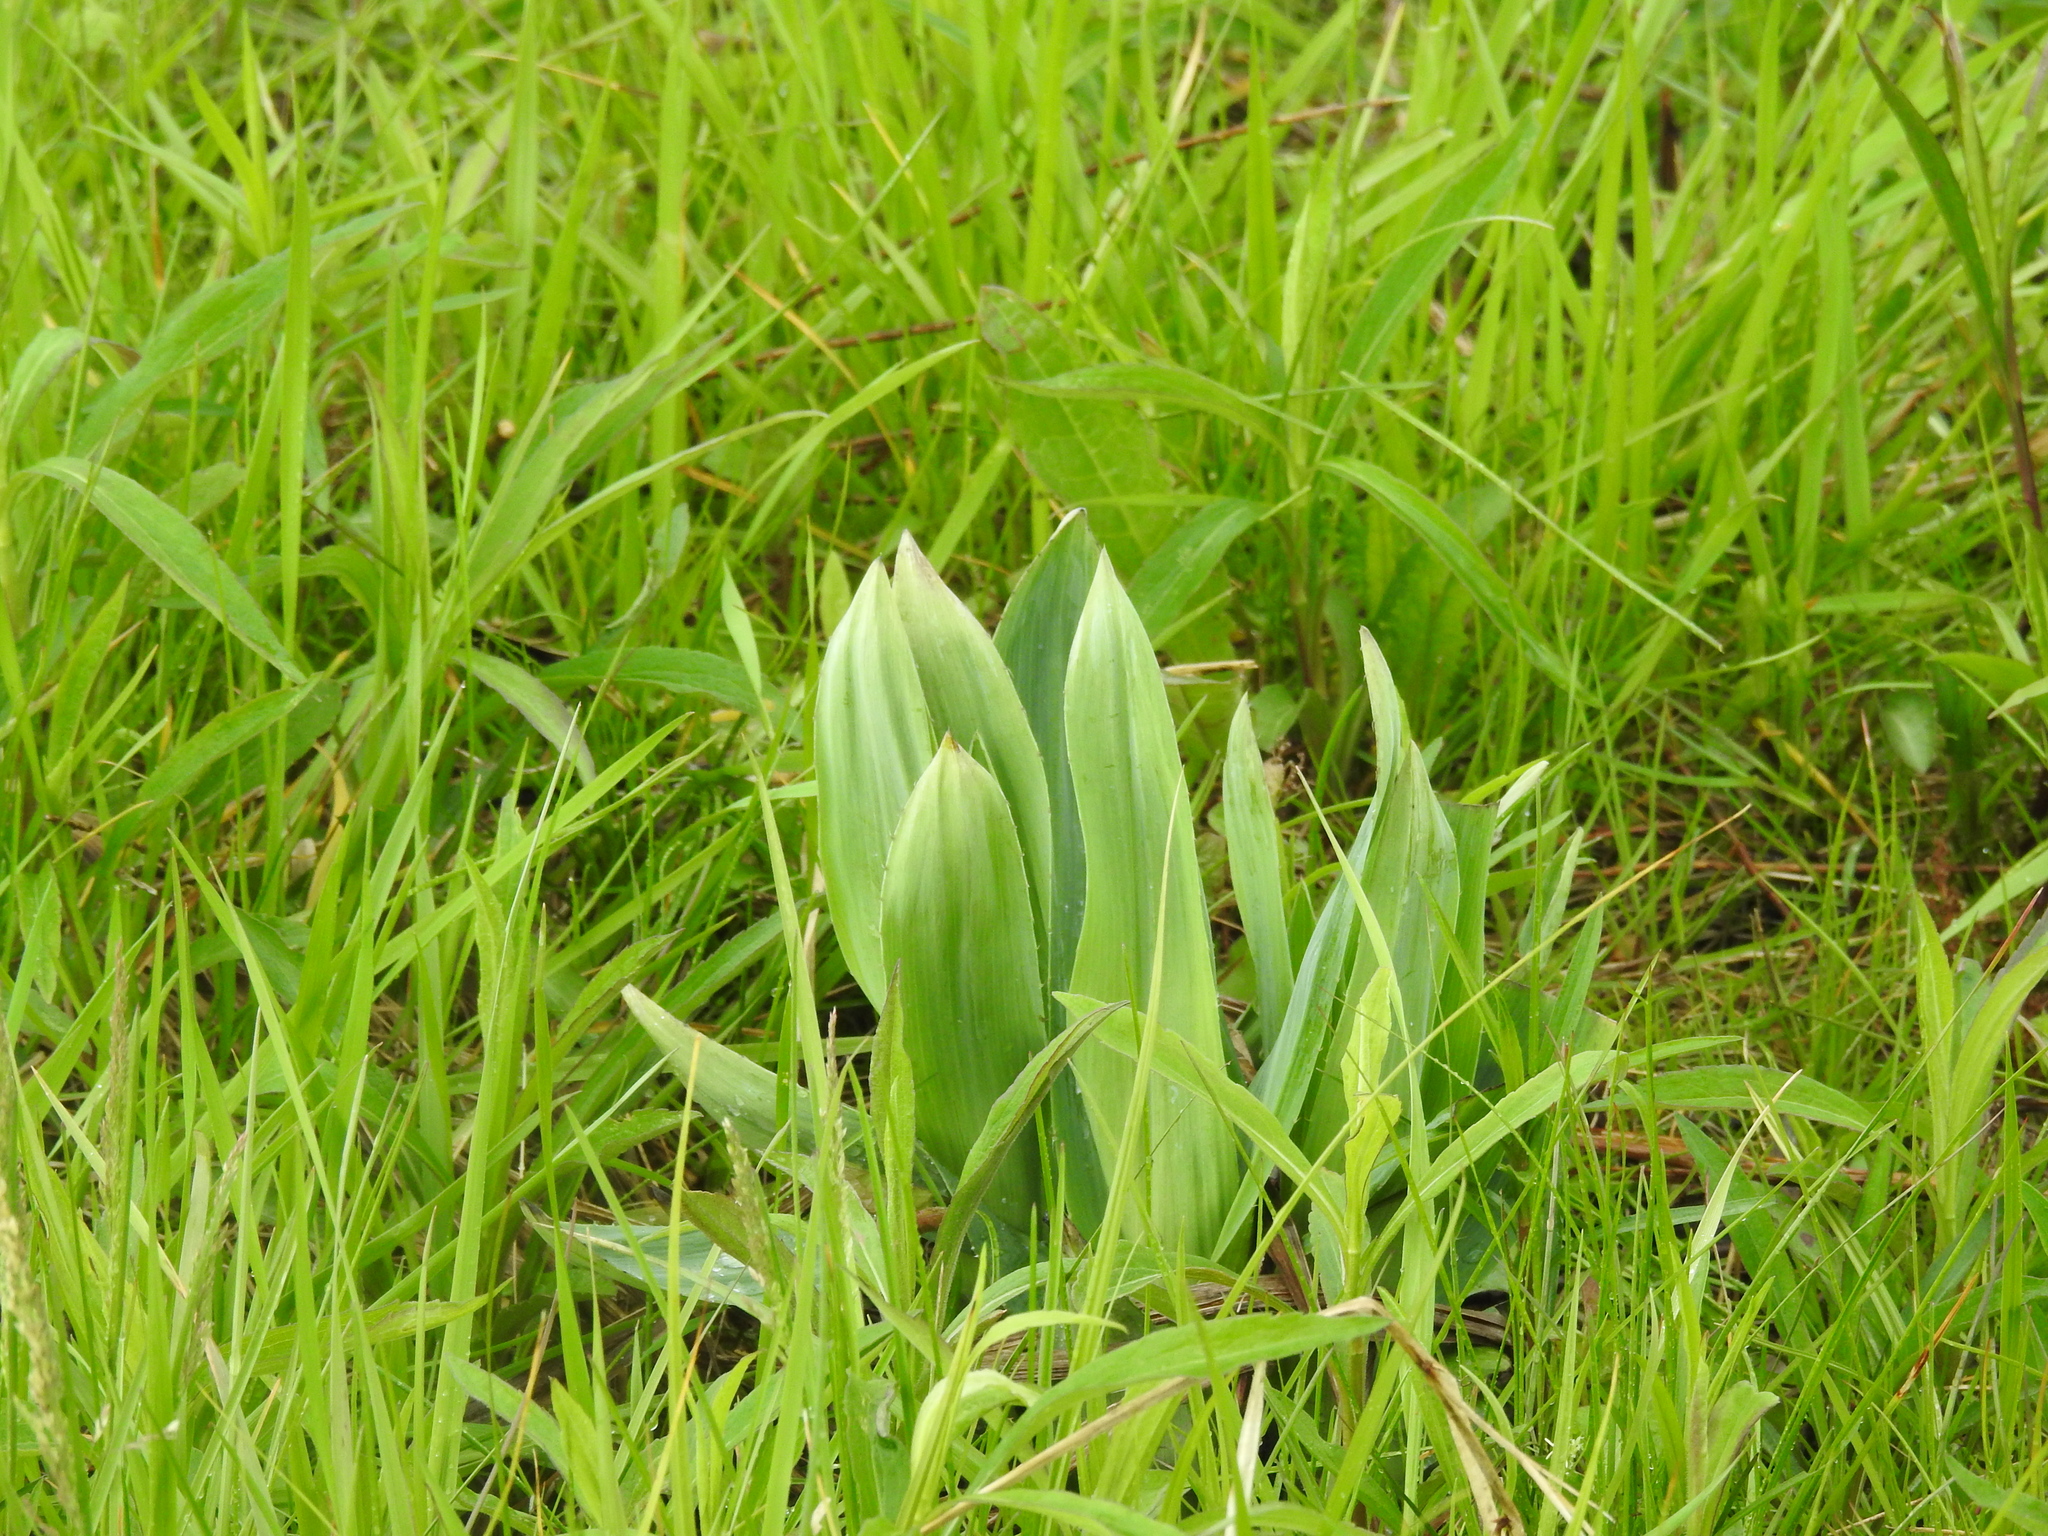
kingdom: Plantae
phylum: Tracheophyta
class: Magnoliopsida
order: Apiales
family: Apiaceae
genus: Eryngium
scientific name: Eryngium yuccifolium
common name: Button eryngo
